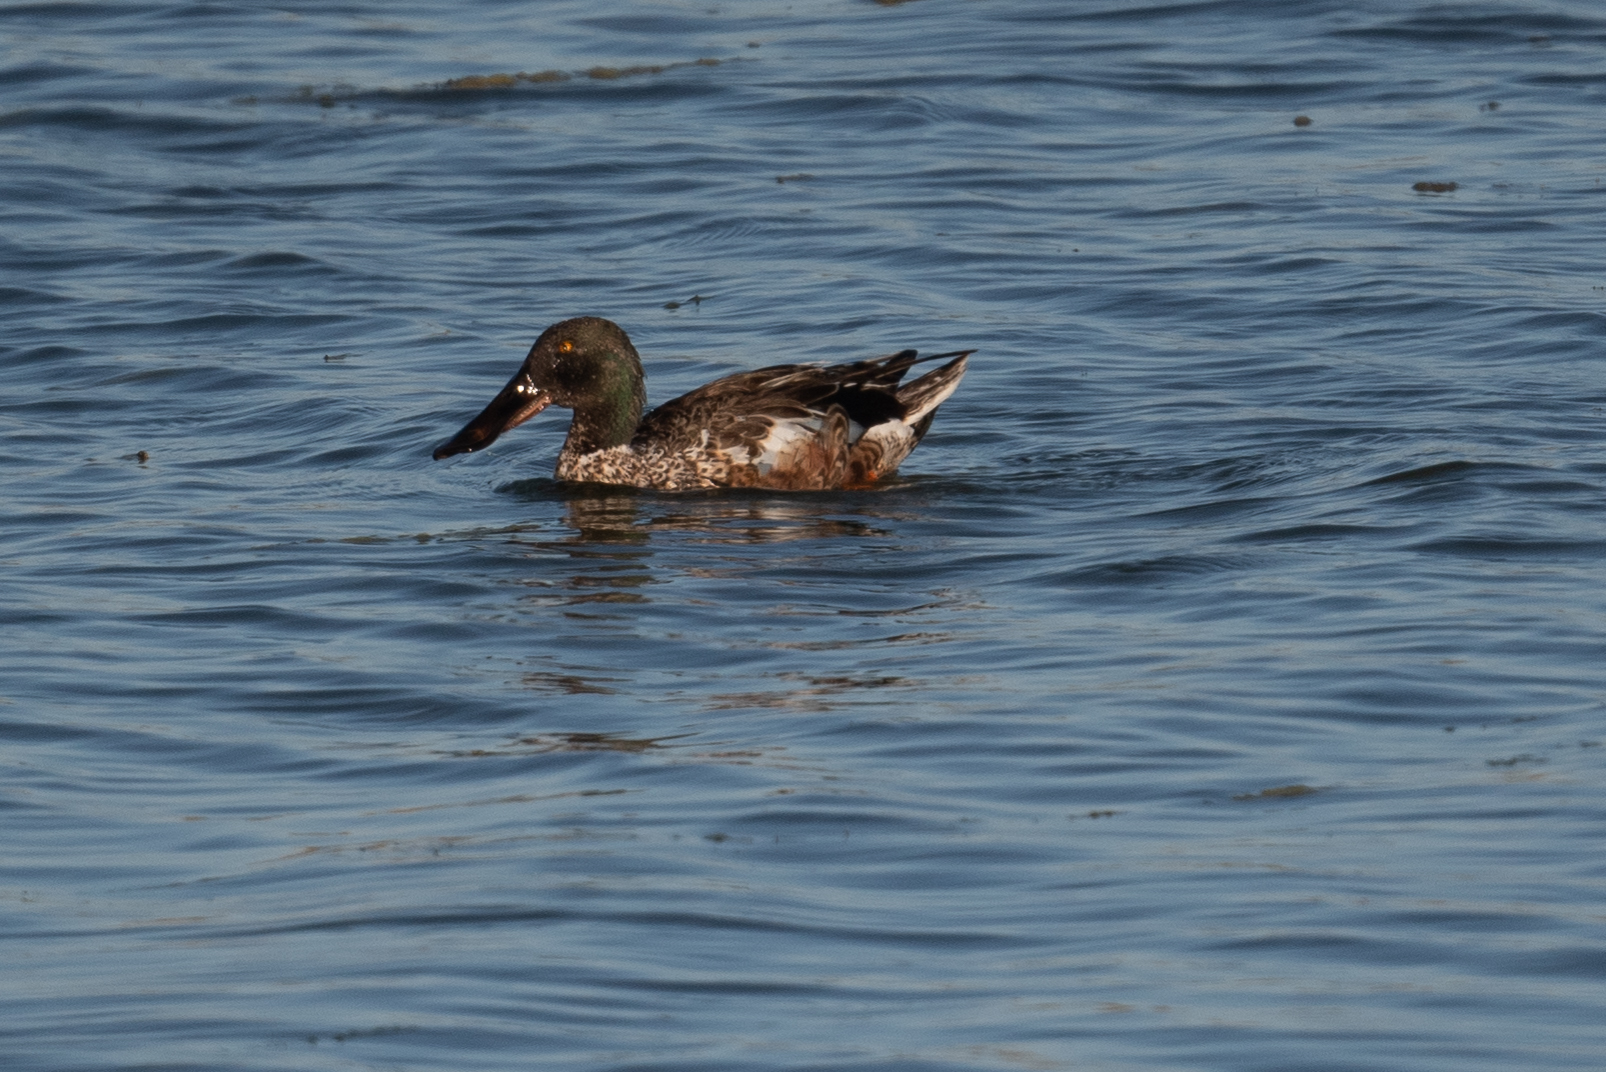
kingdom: Animalia
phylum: Chordata
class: Aves
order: Anseriformes
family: Anatidae
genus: Spatula
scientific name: Spatula clypeata
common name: Northern shoveler
